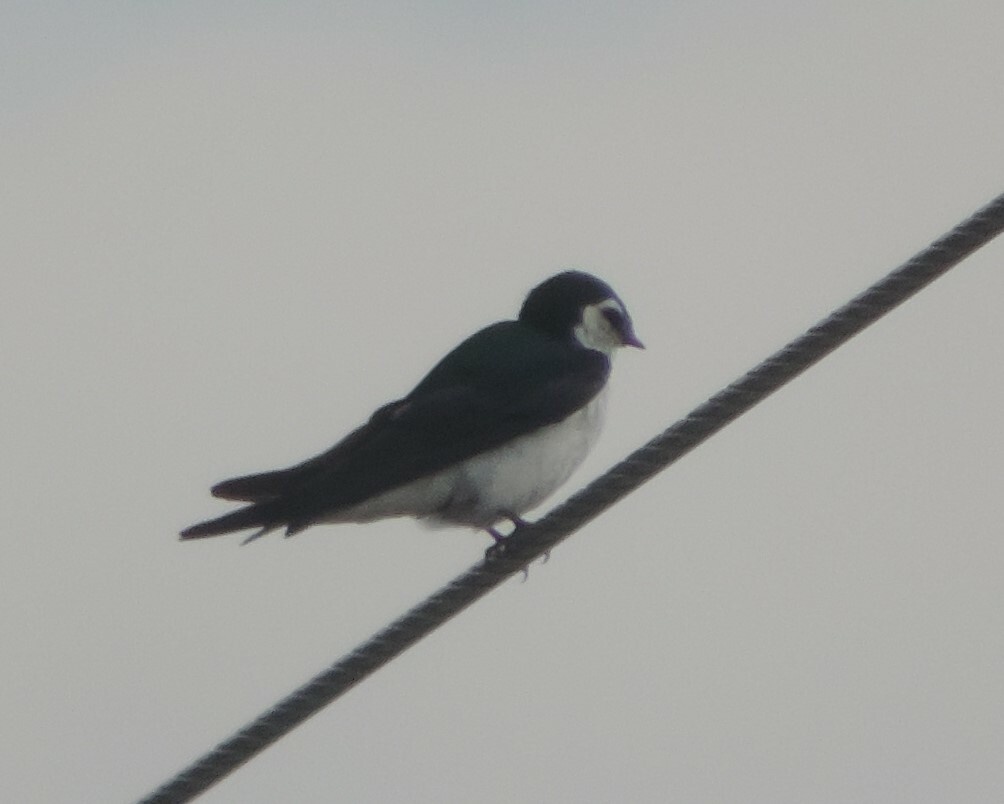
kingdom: Animalia
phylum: Chordata
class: Aves
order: Passeriformes
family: Hirundinidae
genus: Tachycineta
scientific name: Tachycineta thalassina
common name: Violet-green swallow
